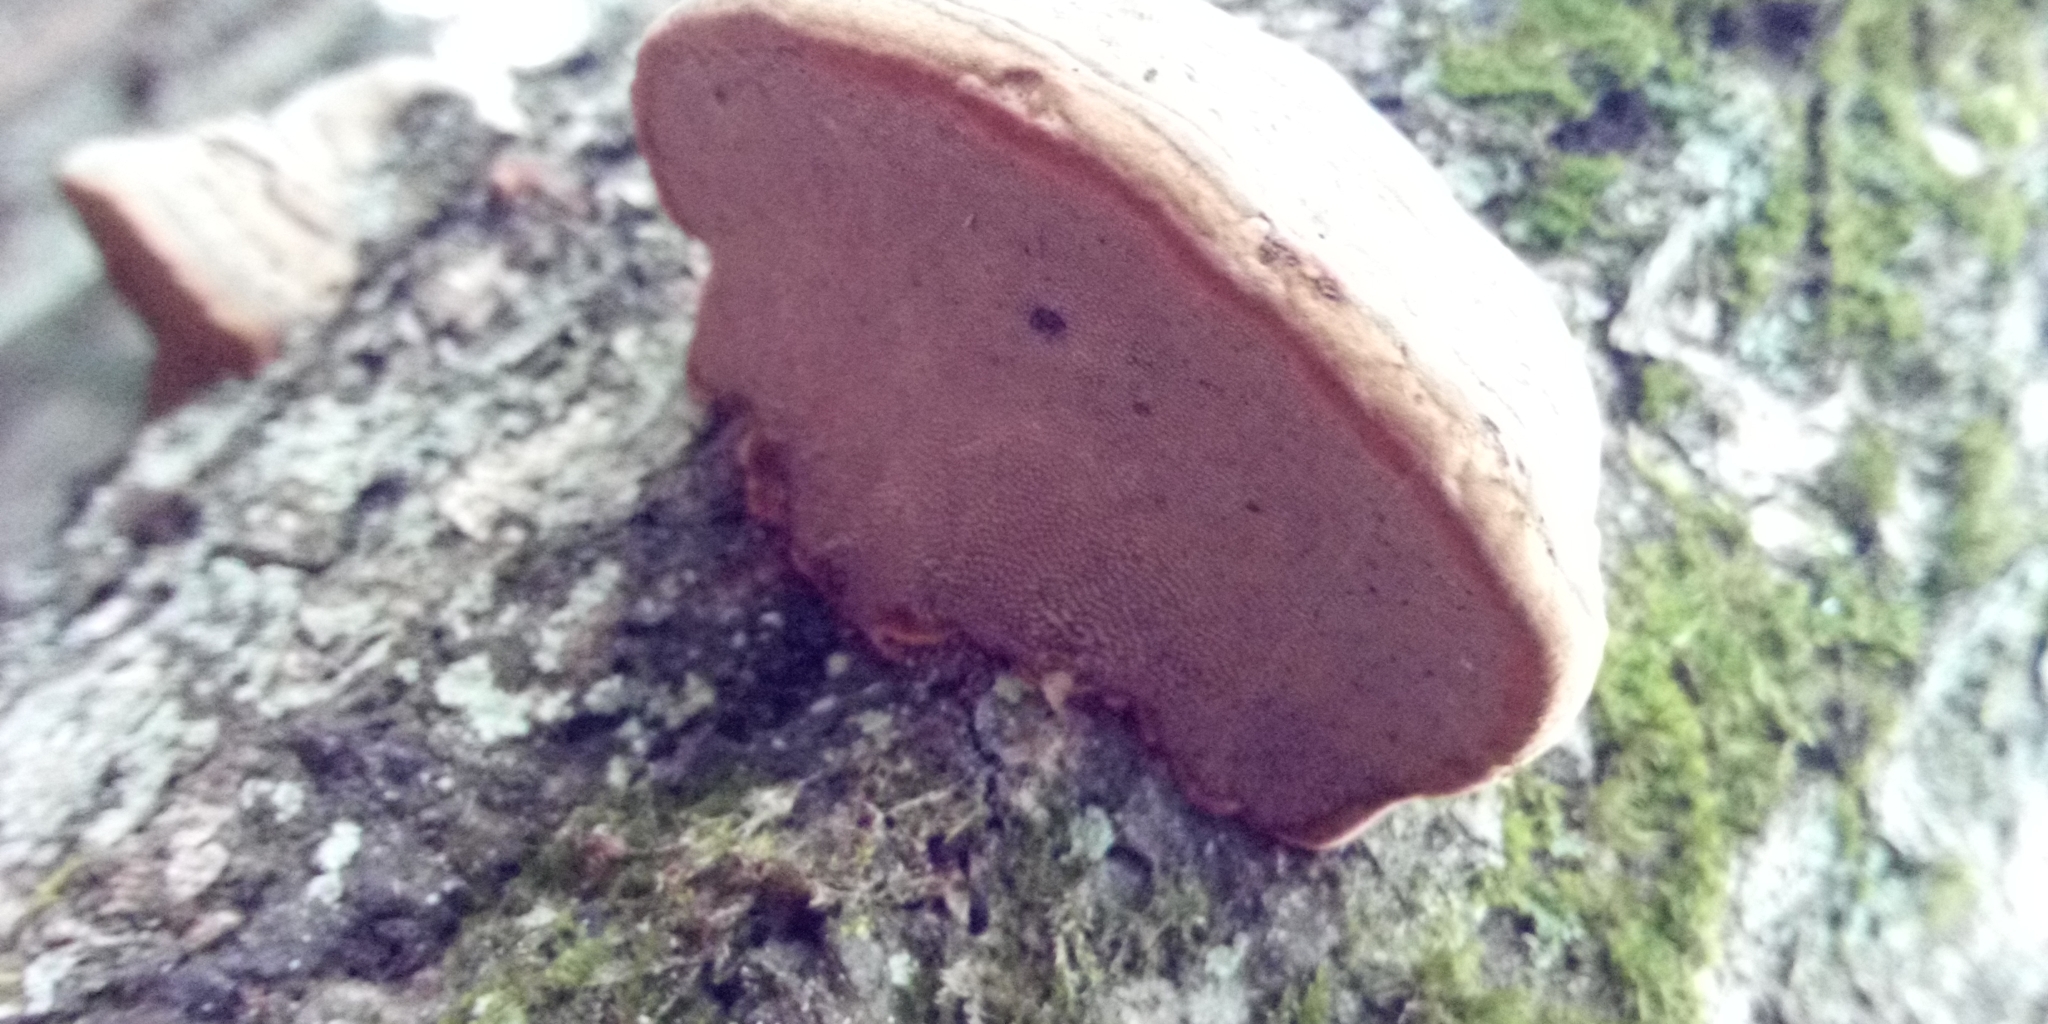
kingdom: Fungi
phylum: Basidiomycota
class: Agaricomycetes
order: Polyporales
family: Polyporaceae
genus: Fomes
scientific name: Fomes fomentarius
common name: Hoof fungus
